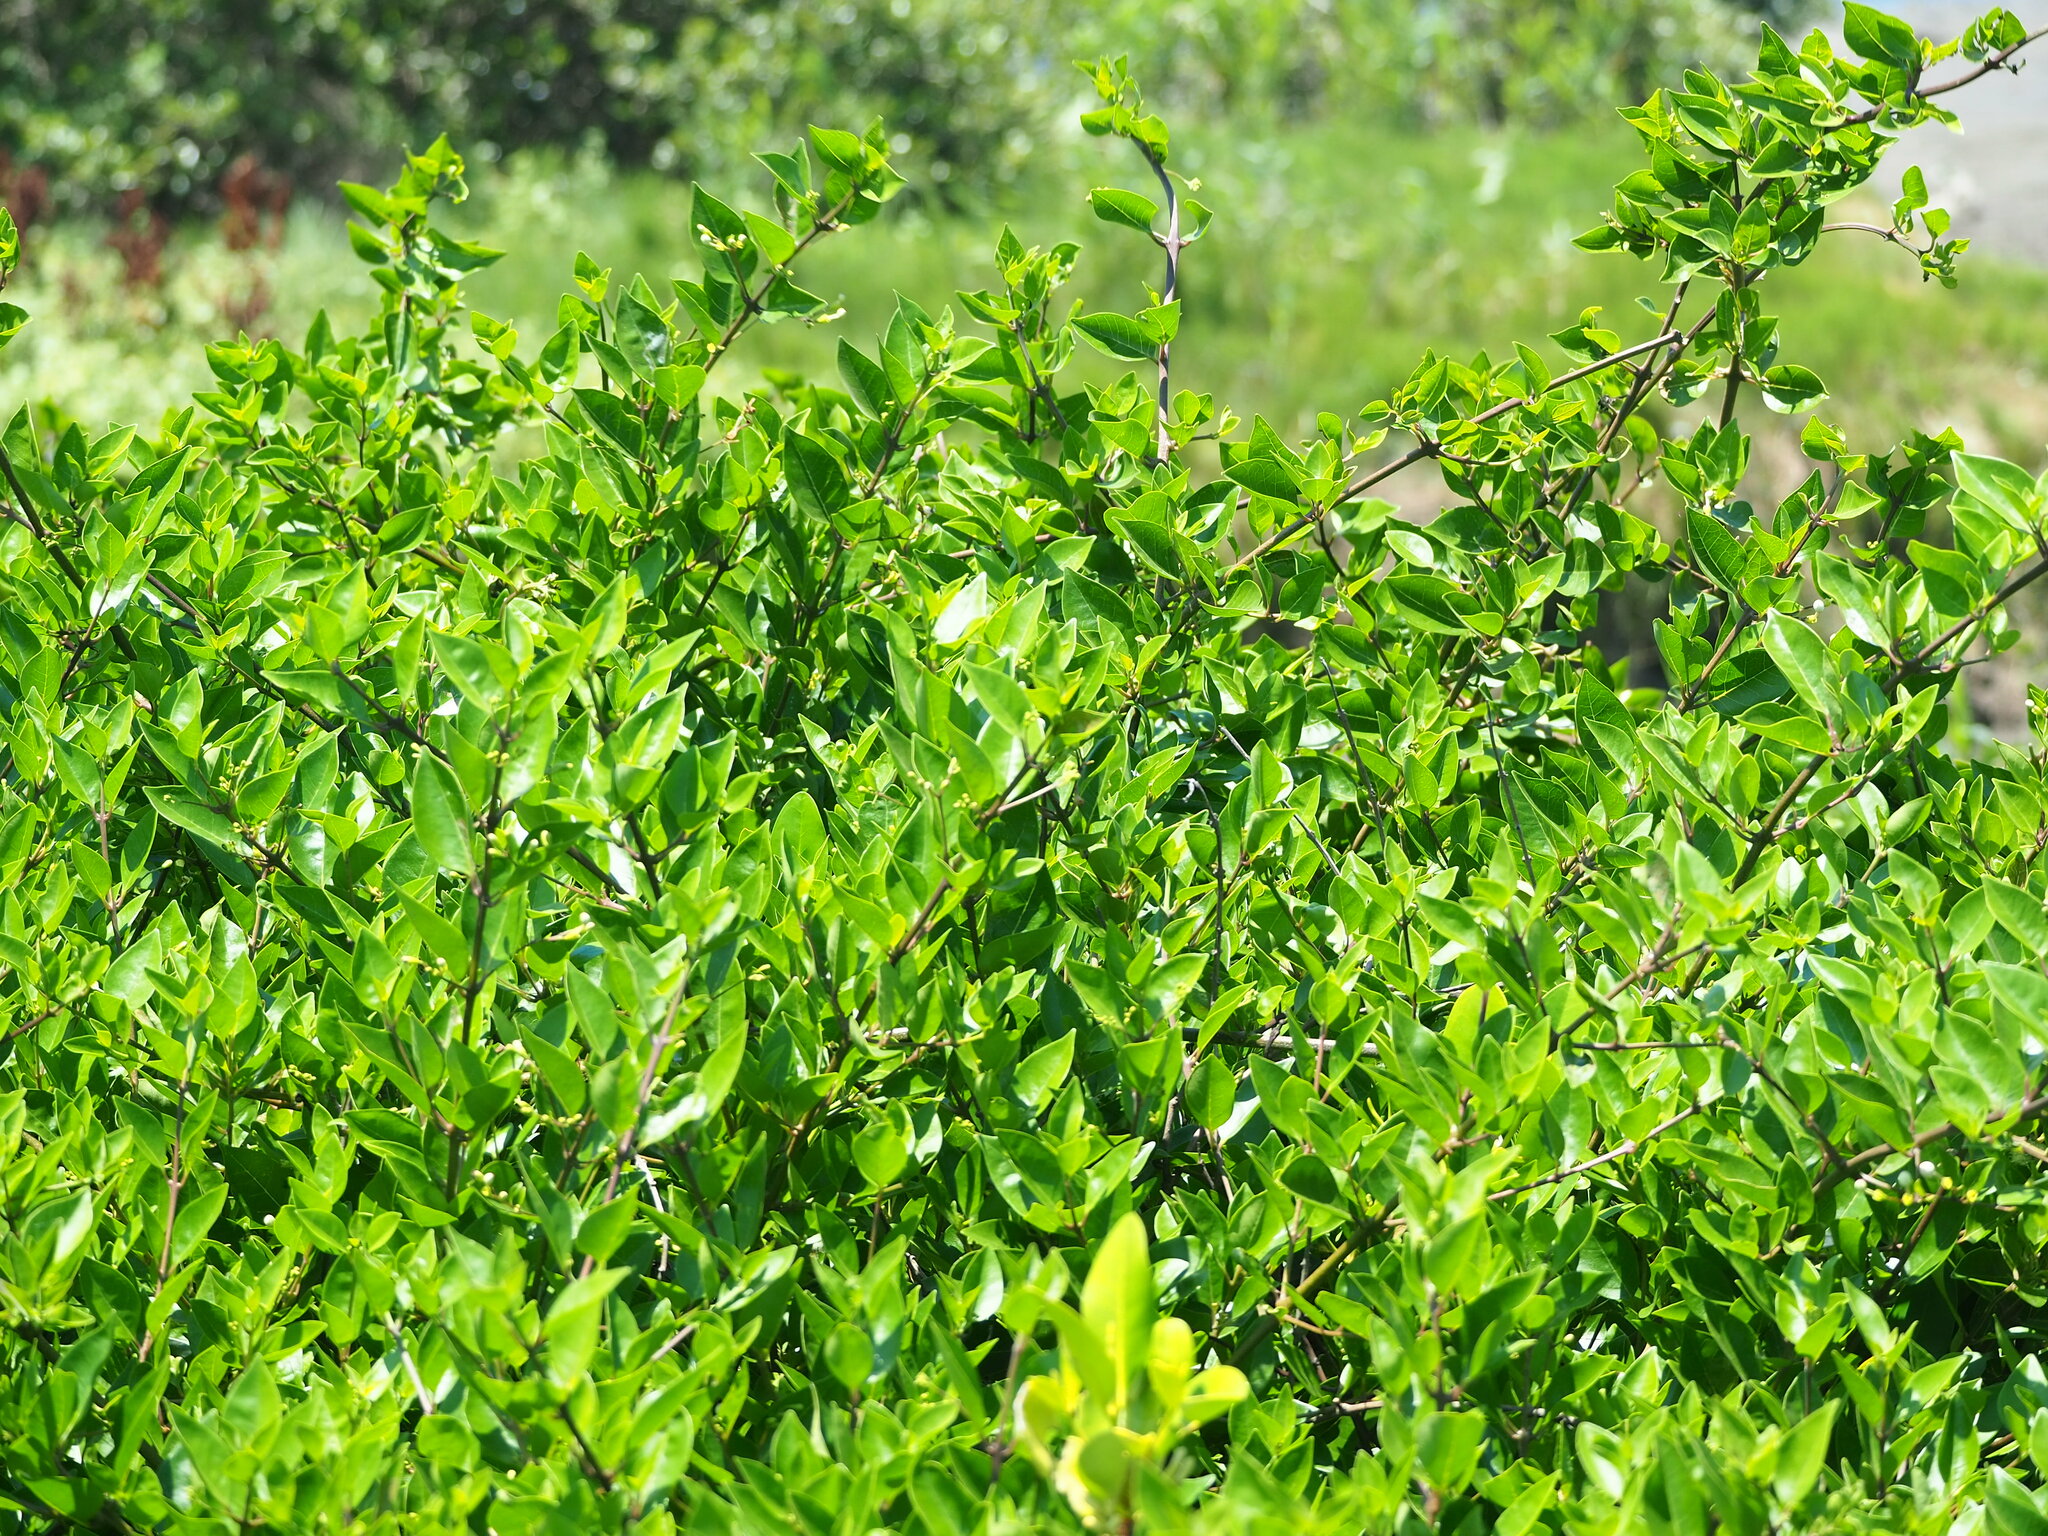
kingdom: Plantae
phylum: Tracheophyta
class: Magnoliopsida
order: Lamiales
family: Lamiaceae
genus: Volkameria
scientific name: Volkameria inermis
